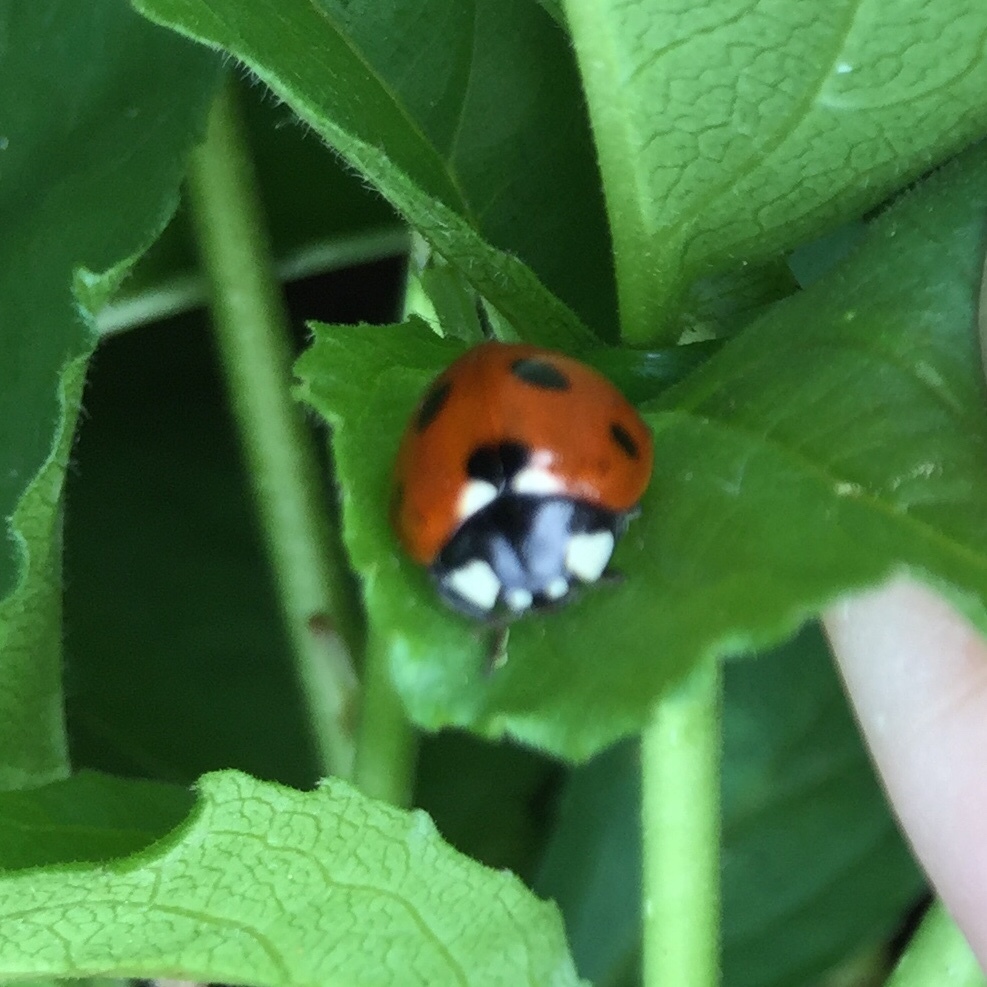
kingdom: Animalia
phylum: Arthropoda
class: Insecta
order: Coleoptera
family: Coccinellidae
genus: Coccinella
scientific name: Coccinella septempunctata
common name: Sevenspotted lady beetle
